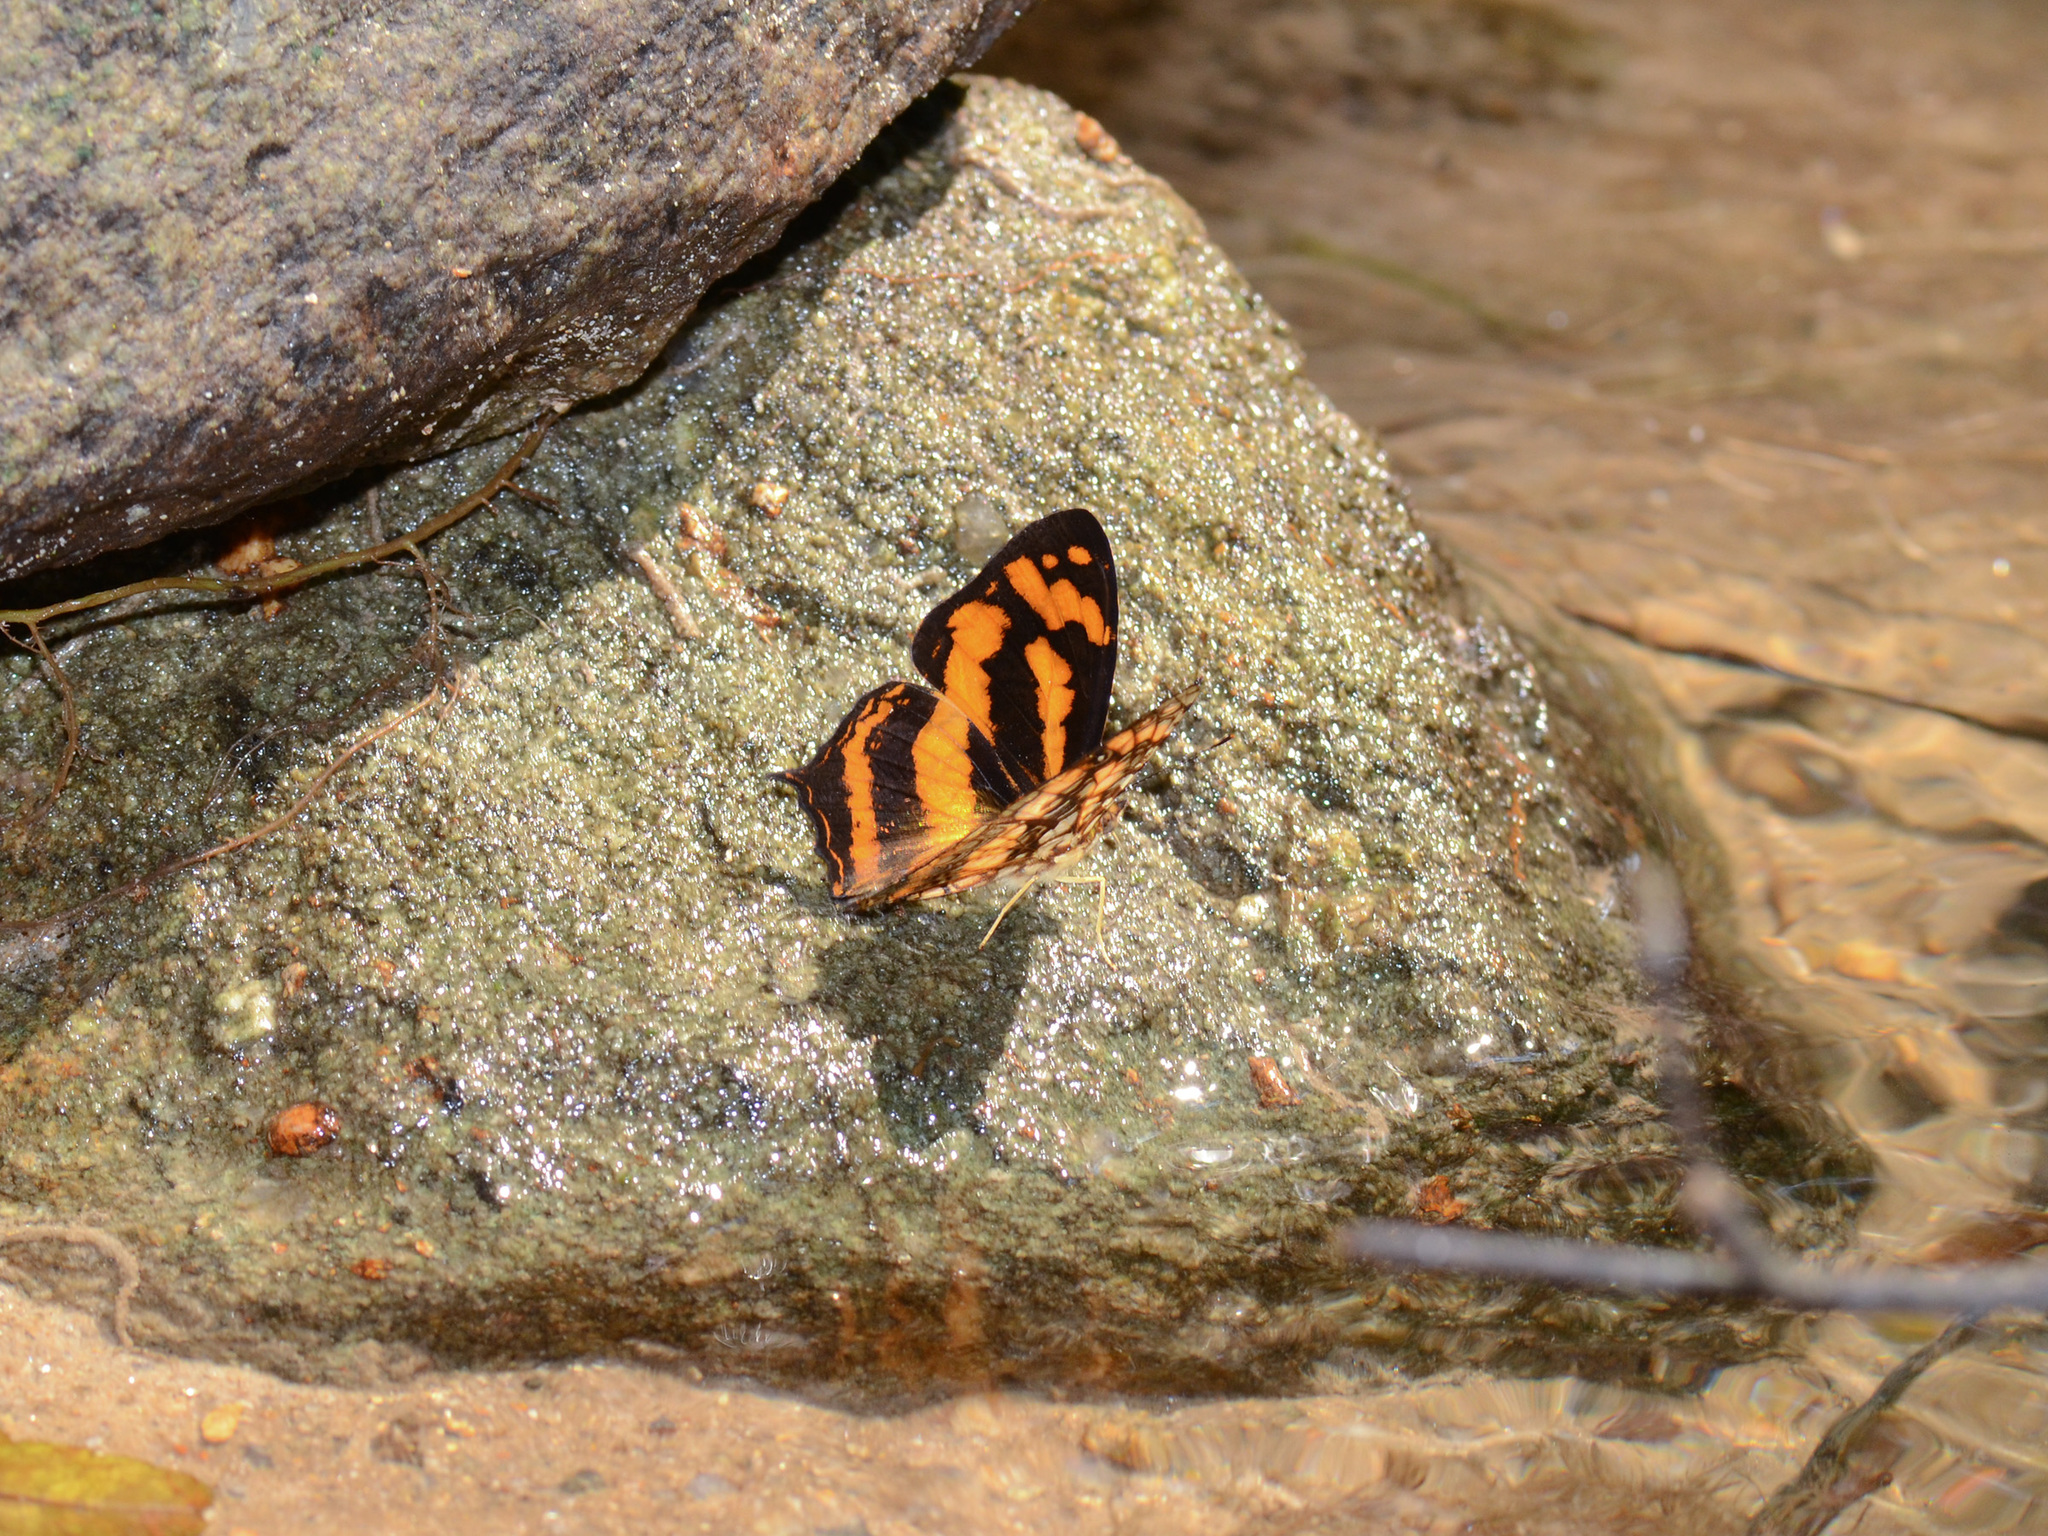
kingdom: Animalia
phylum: Arthropoda
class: Insecta
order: Lepidoptera
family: Nymphalidae
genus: Symbrenthia
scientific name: Symbrenthia hypatia
